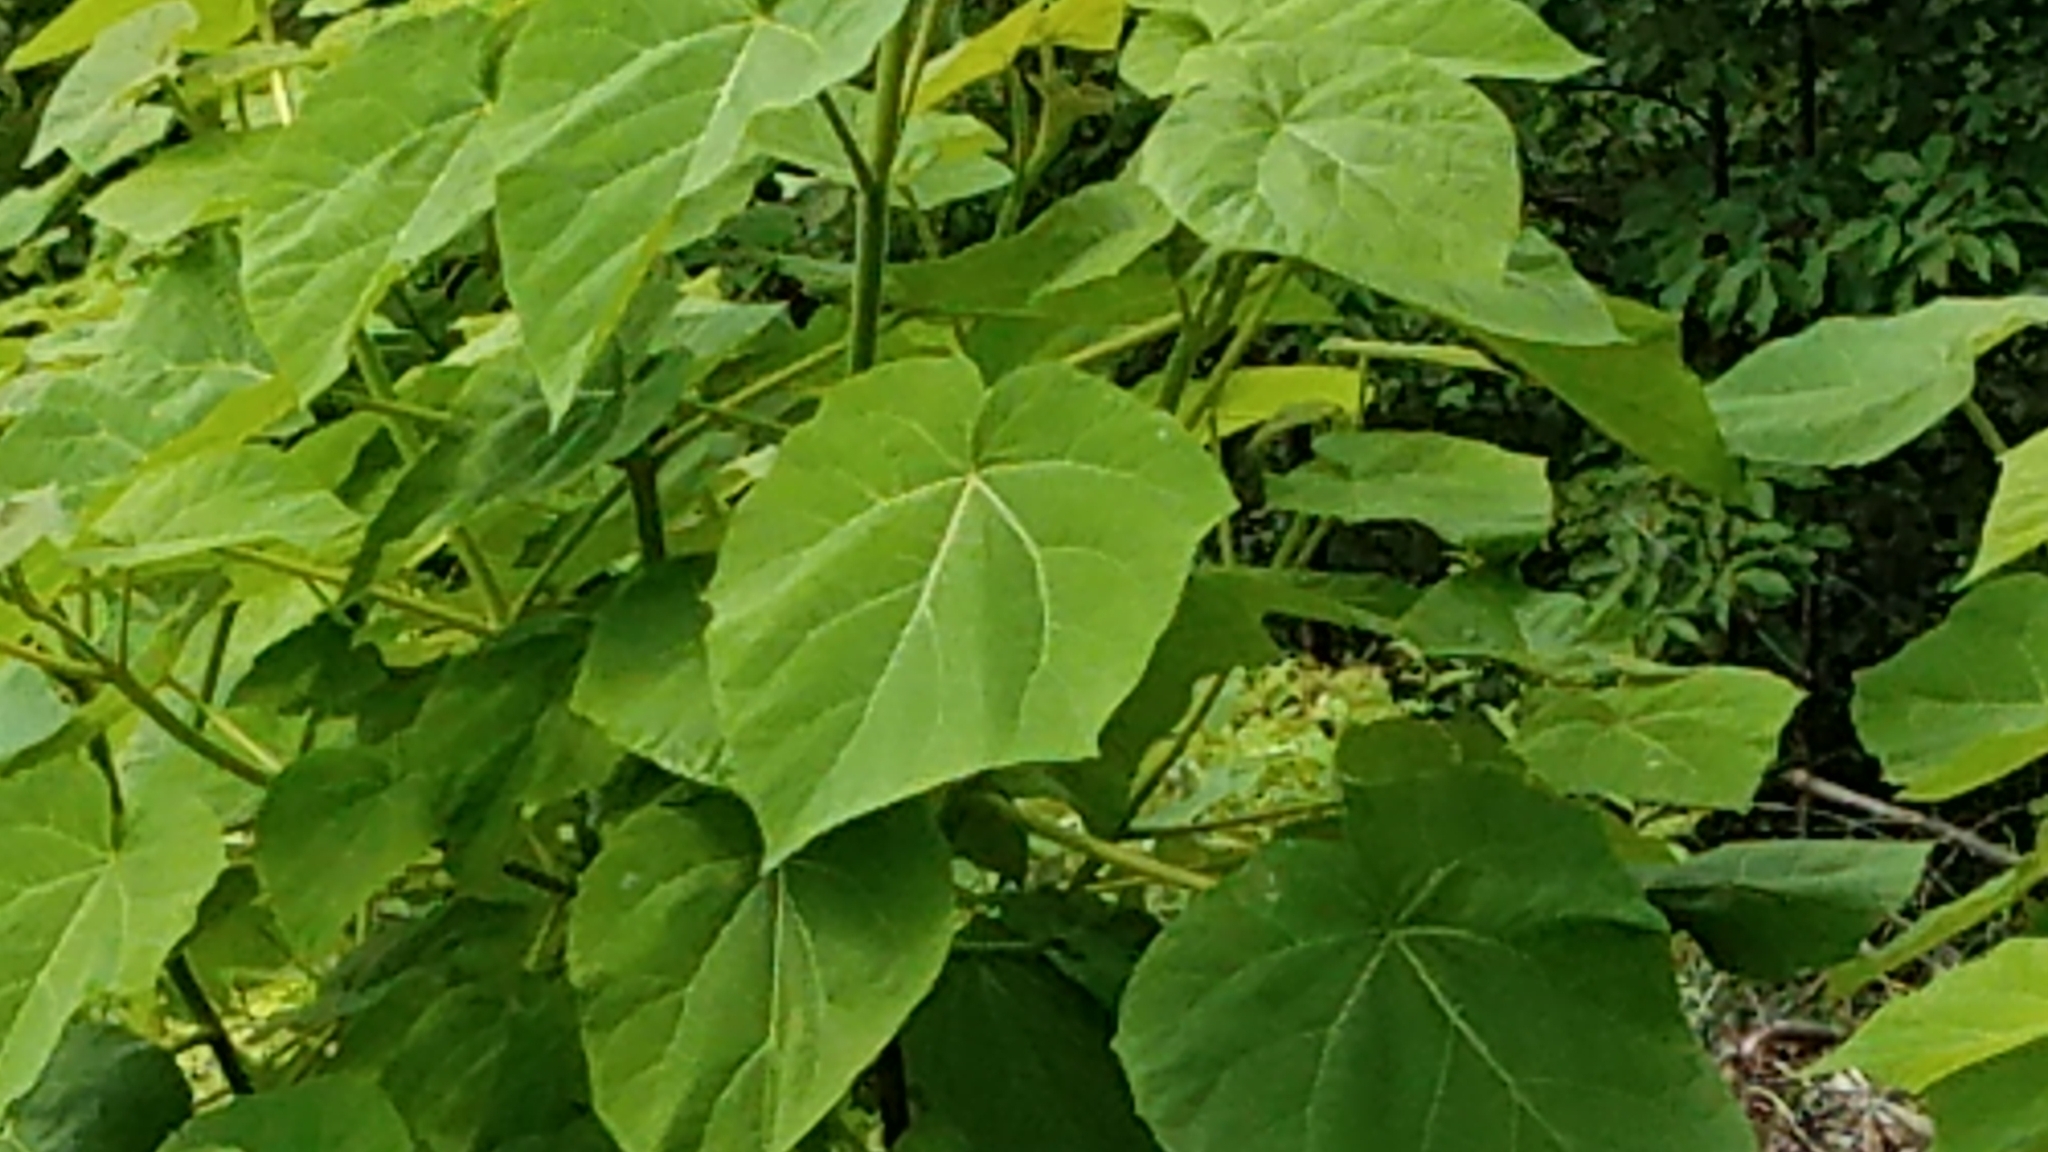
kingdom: Plantae
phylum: Tracheophyta
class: Magnoliopsida
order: Lamiales
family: Paulowniaceae
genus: Paulownia
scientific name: Paulownia tomentosa
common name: Foxglove-tree
